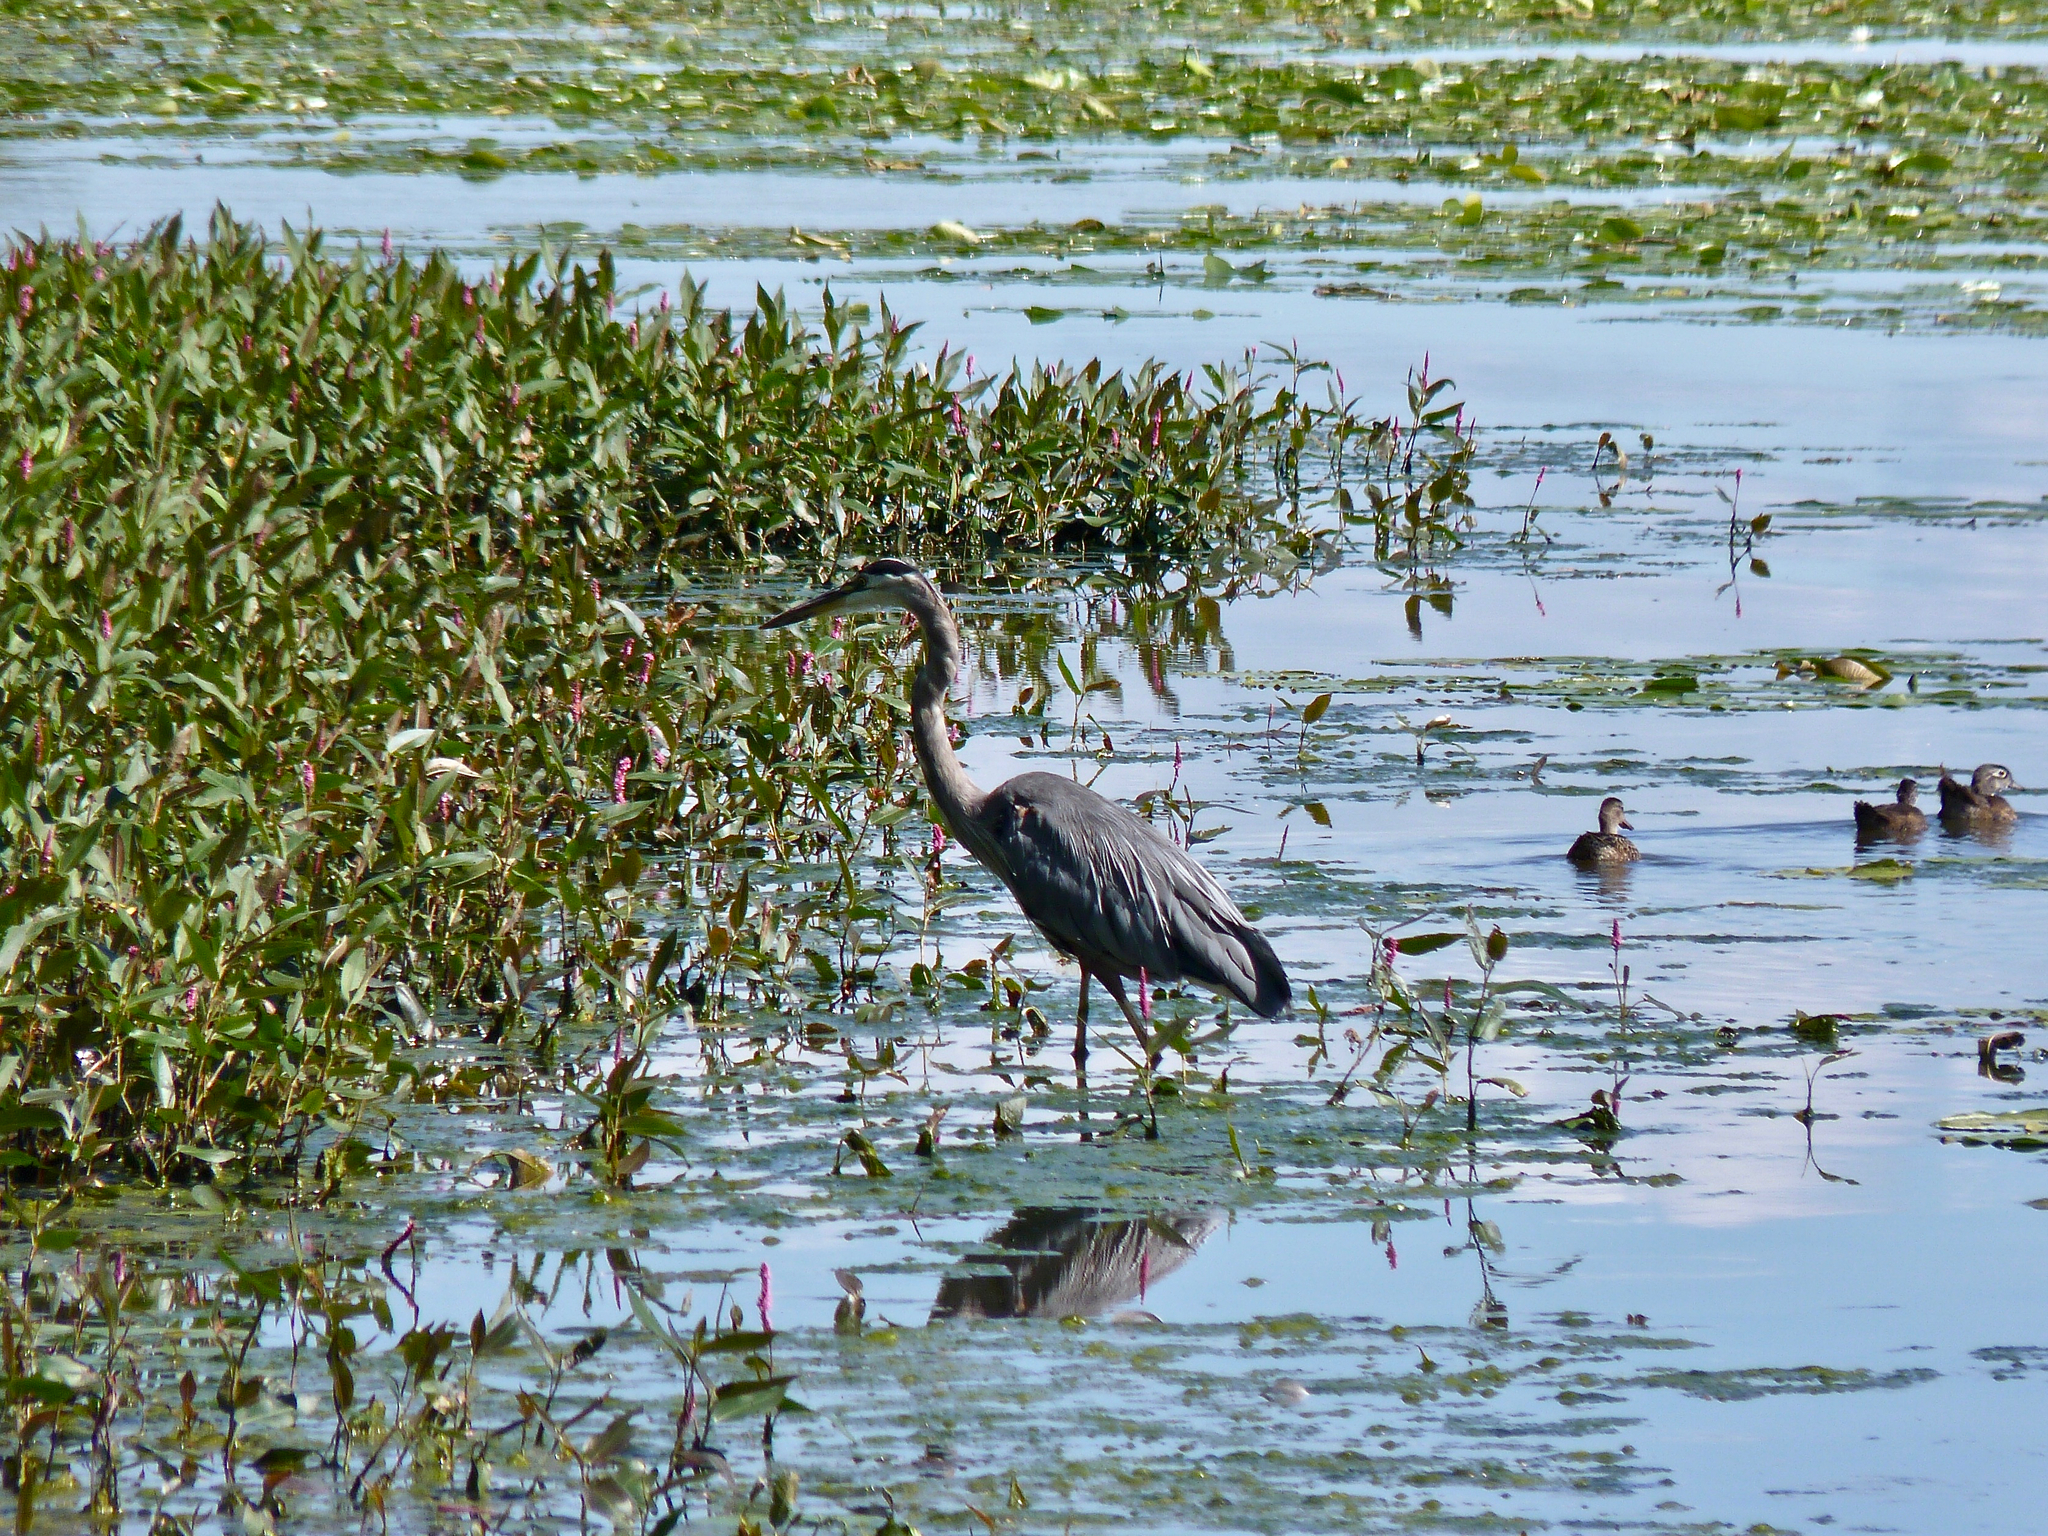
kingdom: Animalia
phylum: Chordata
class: Aves
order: Pelecaniformes
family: Ardeidae
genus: Ardea
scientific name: Ardea herodias
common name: Great blue heron
